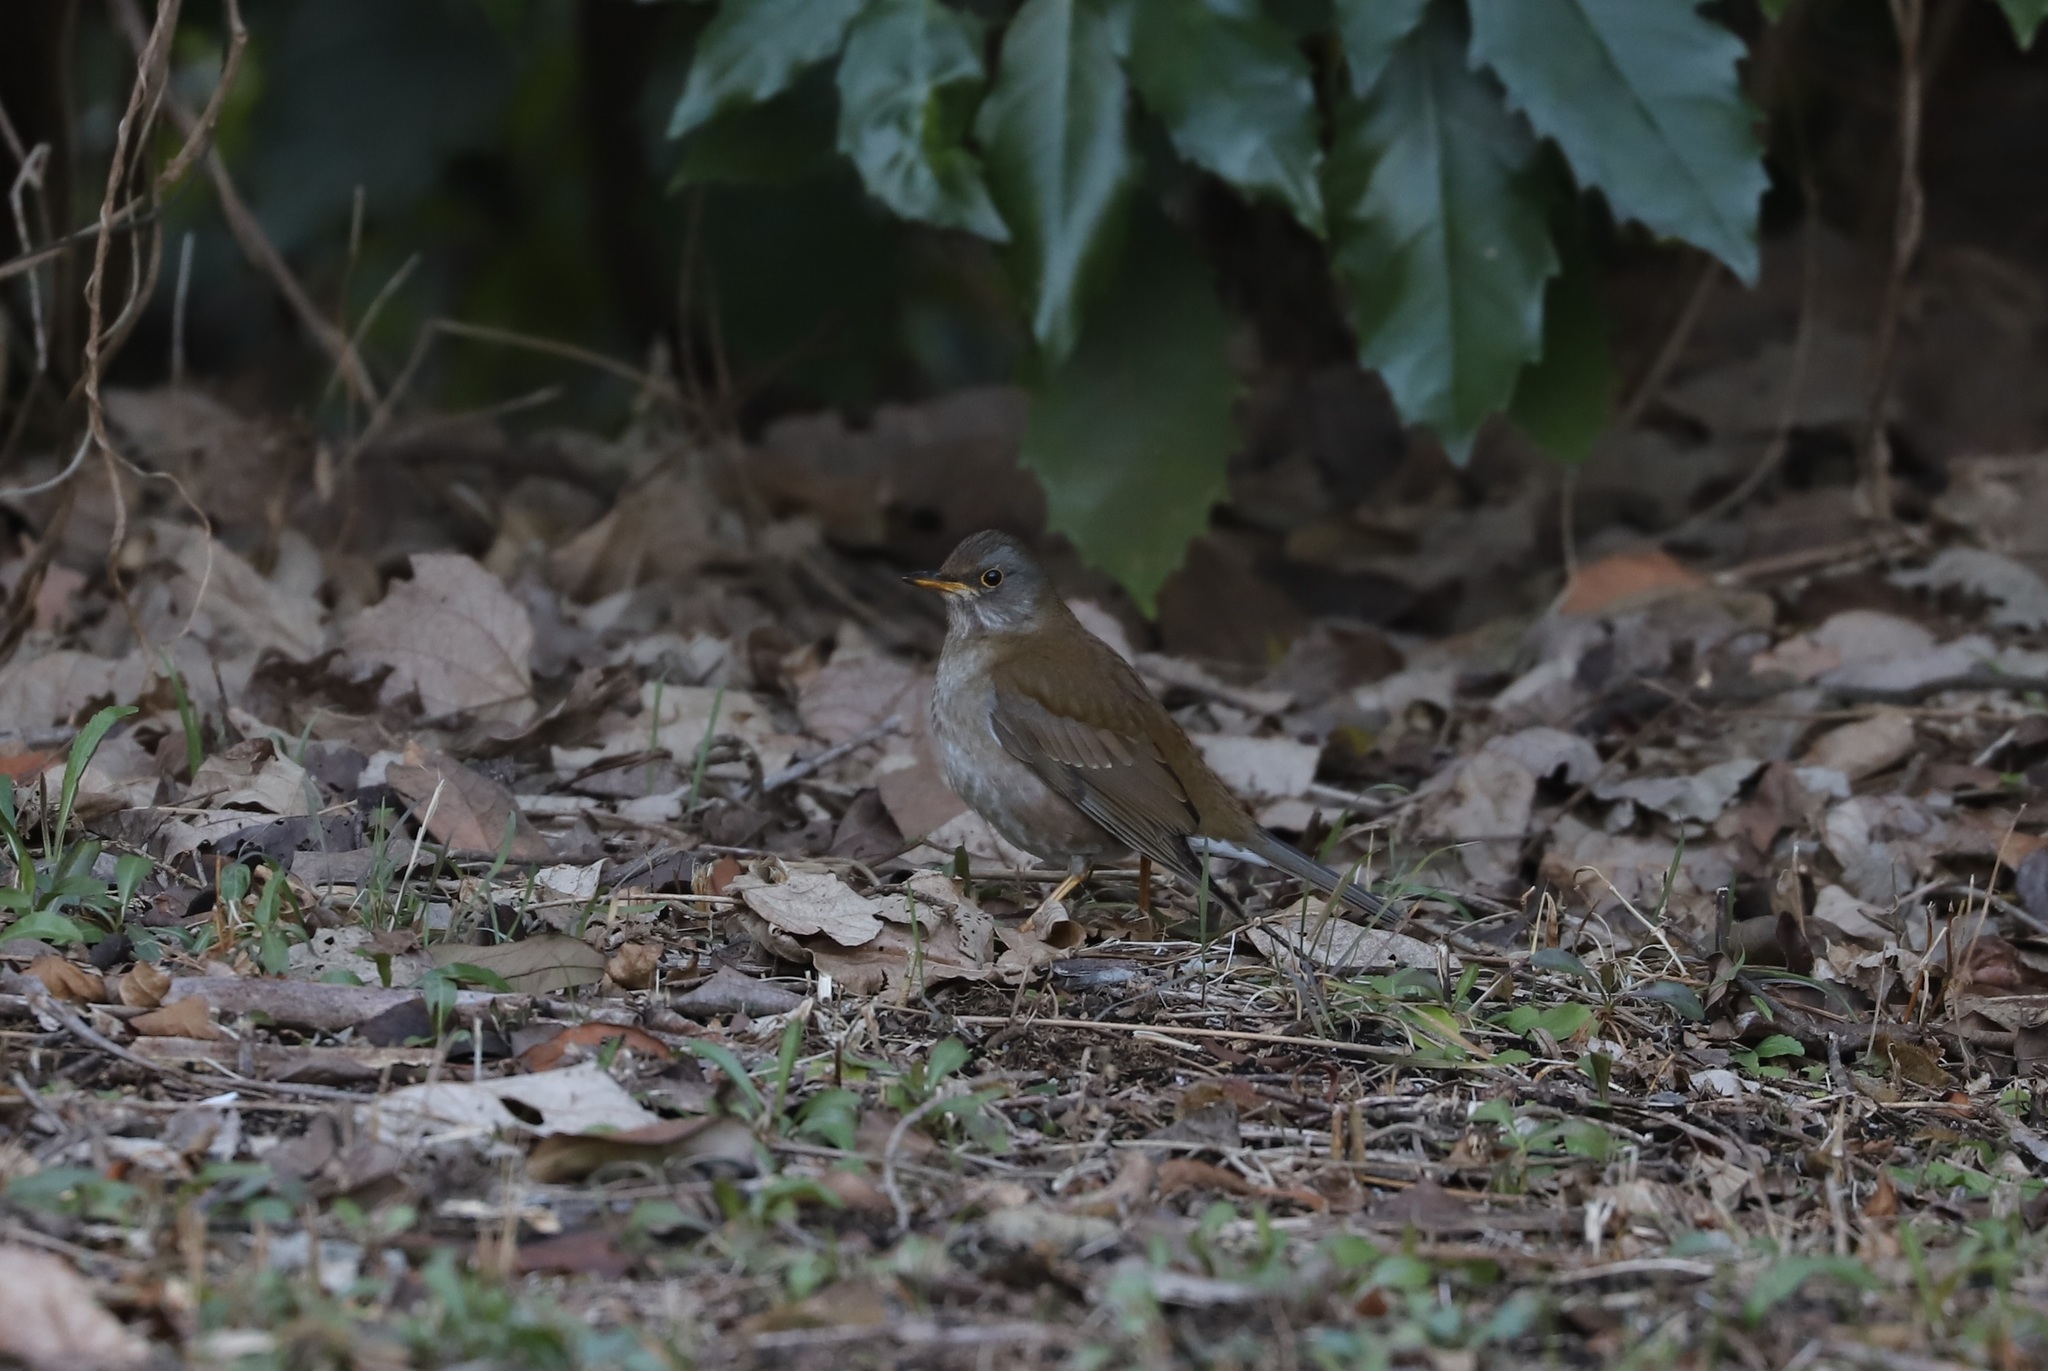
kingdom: Animalia
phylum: Chordata
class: Aves
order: Passeriformes
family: Turdidae
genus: Turdus
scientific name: Turdus pallidus
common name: Pale thrush
